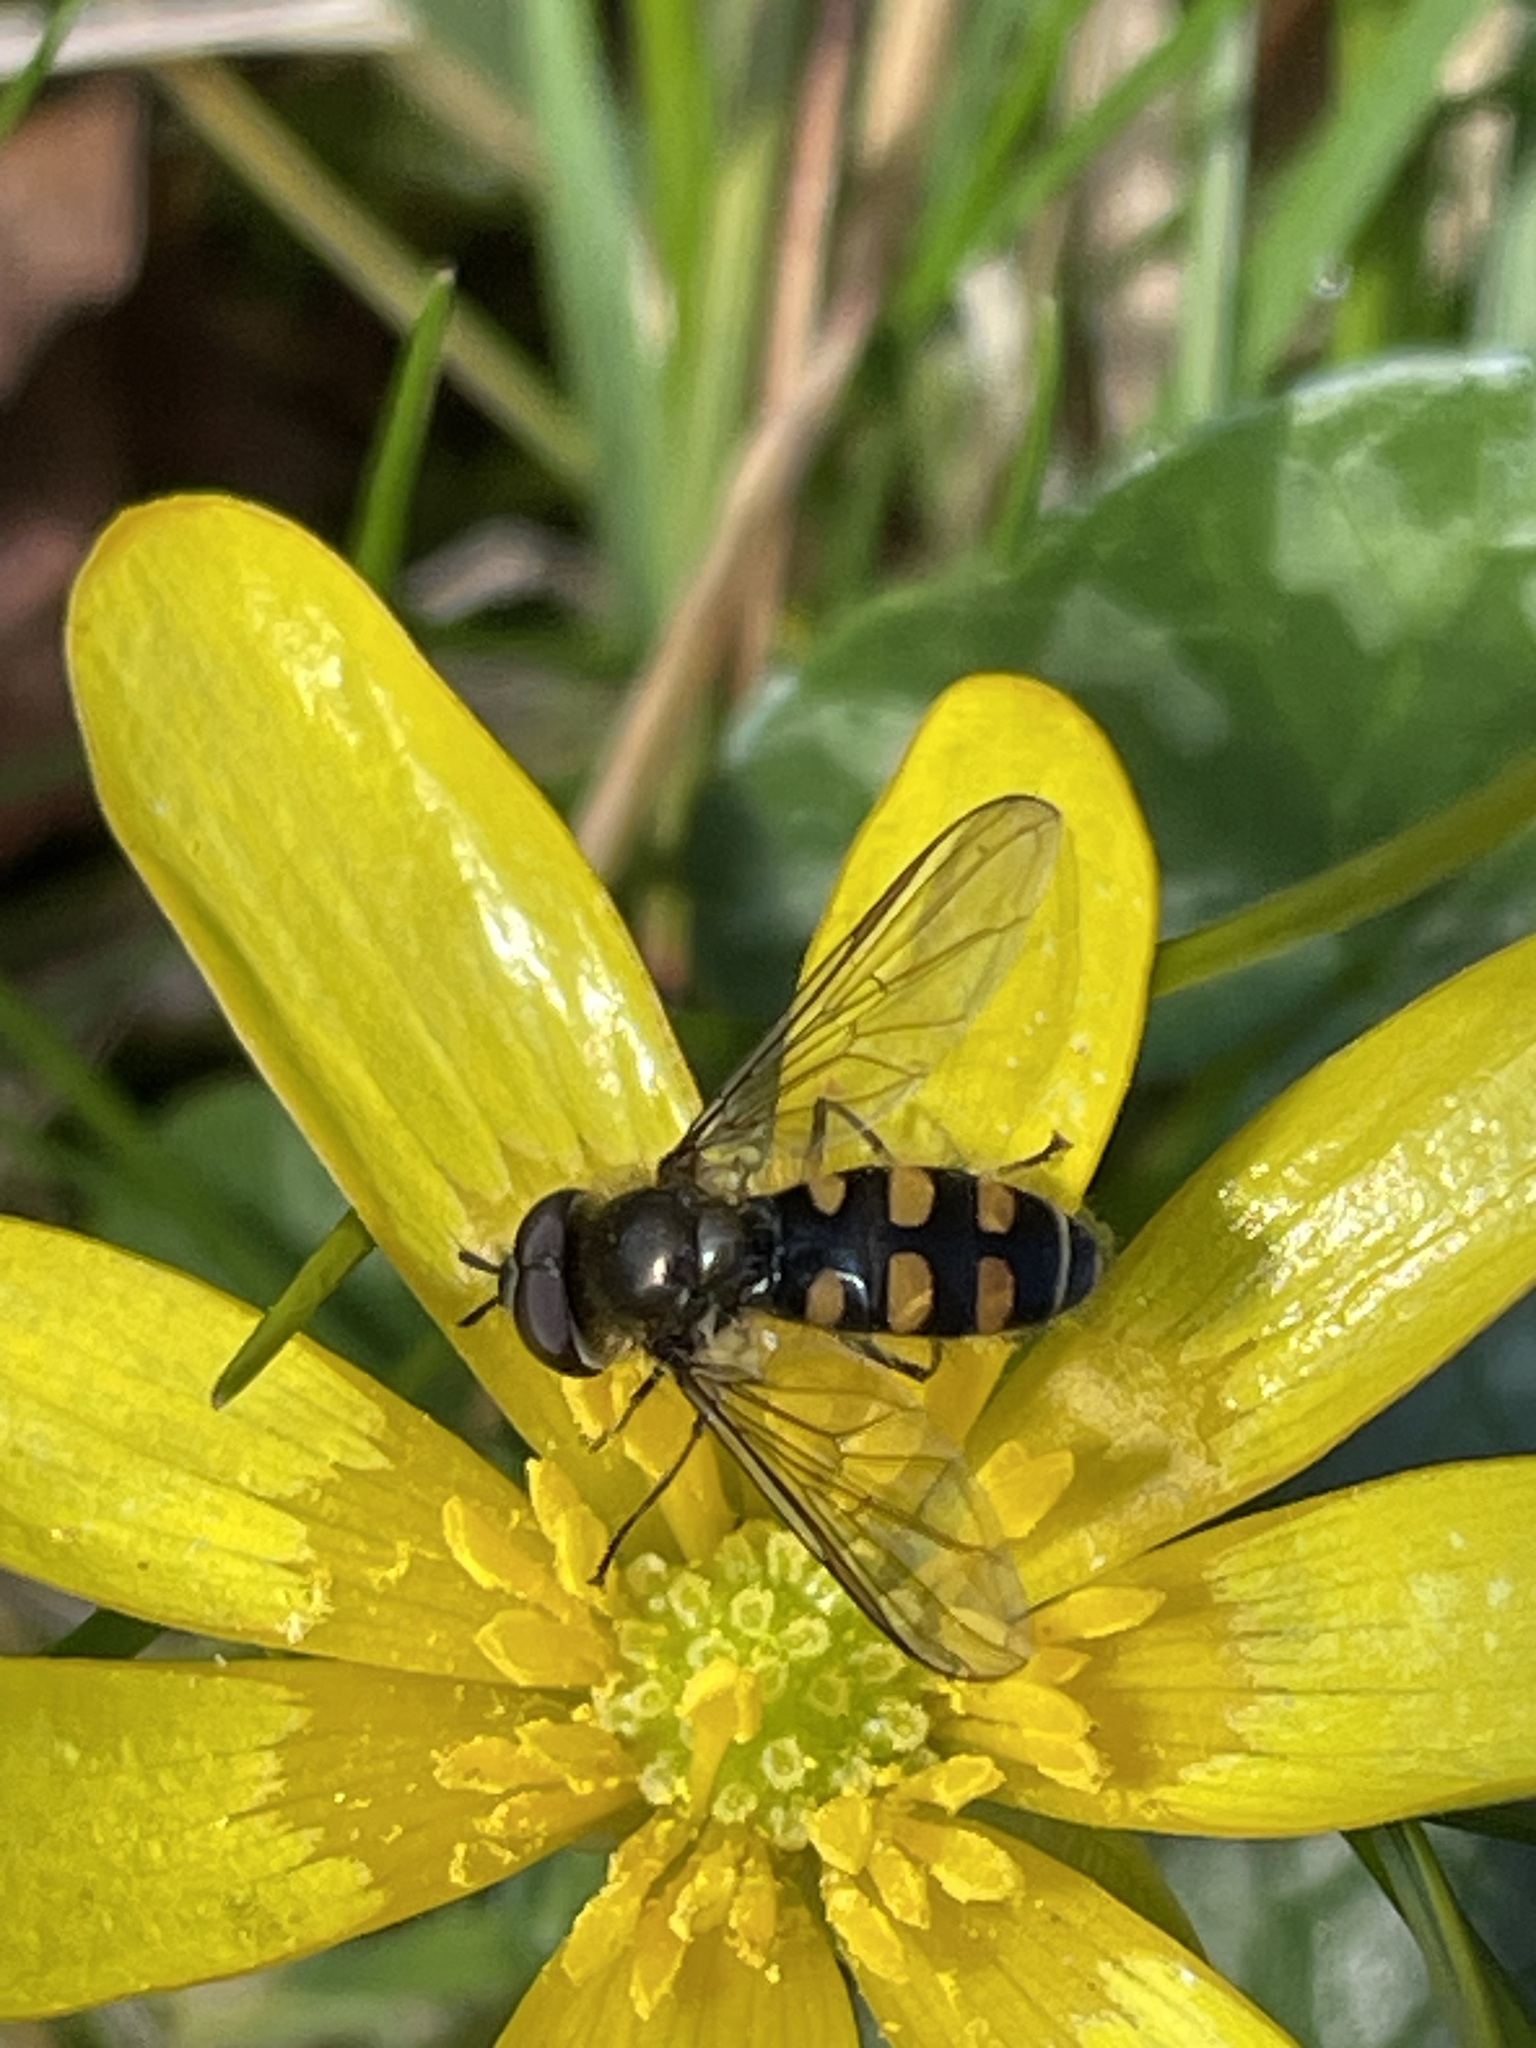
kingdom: Animalia
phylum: Arthropoda
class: Insecta
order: Diptera
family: Syrphidae
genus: Melangyna
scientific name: Melangyna lasiophthalma
